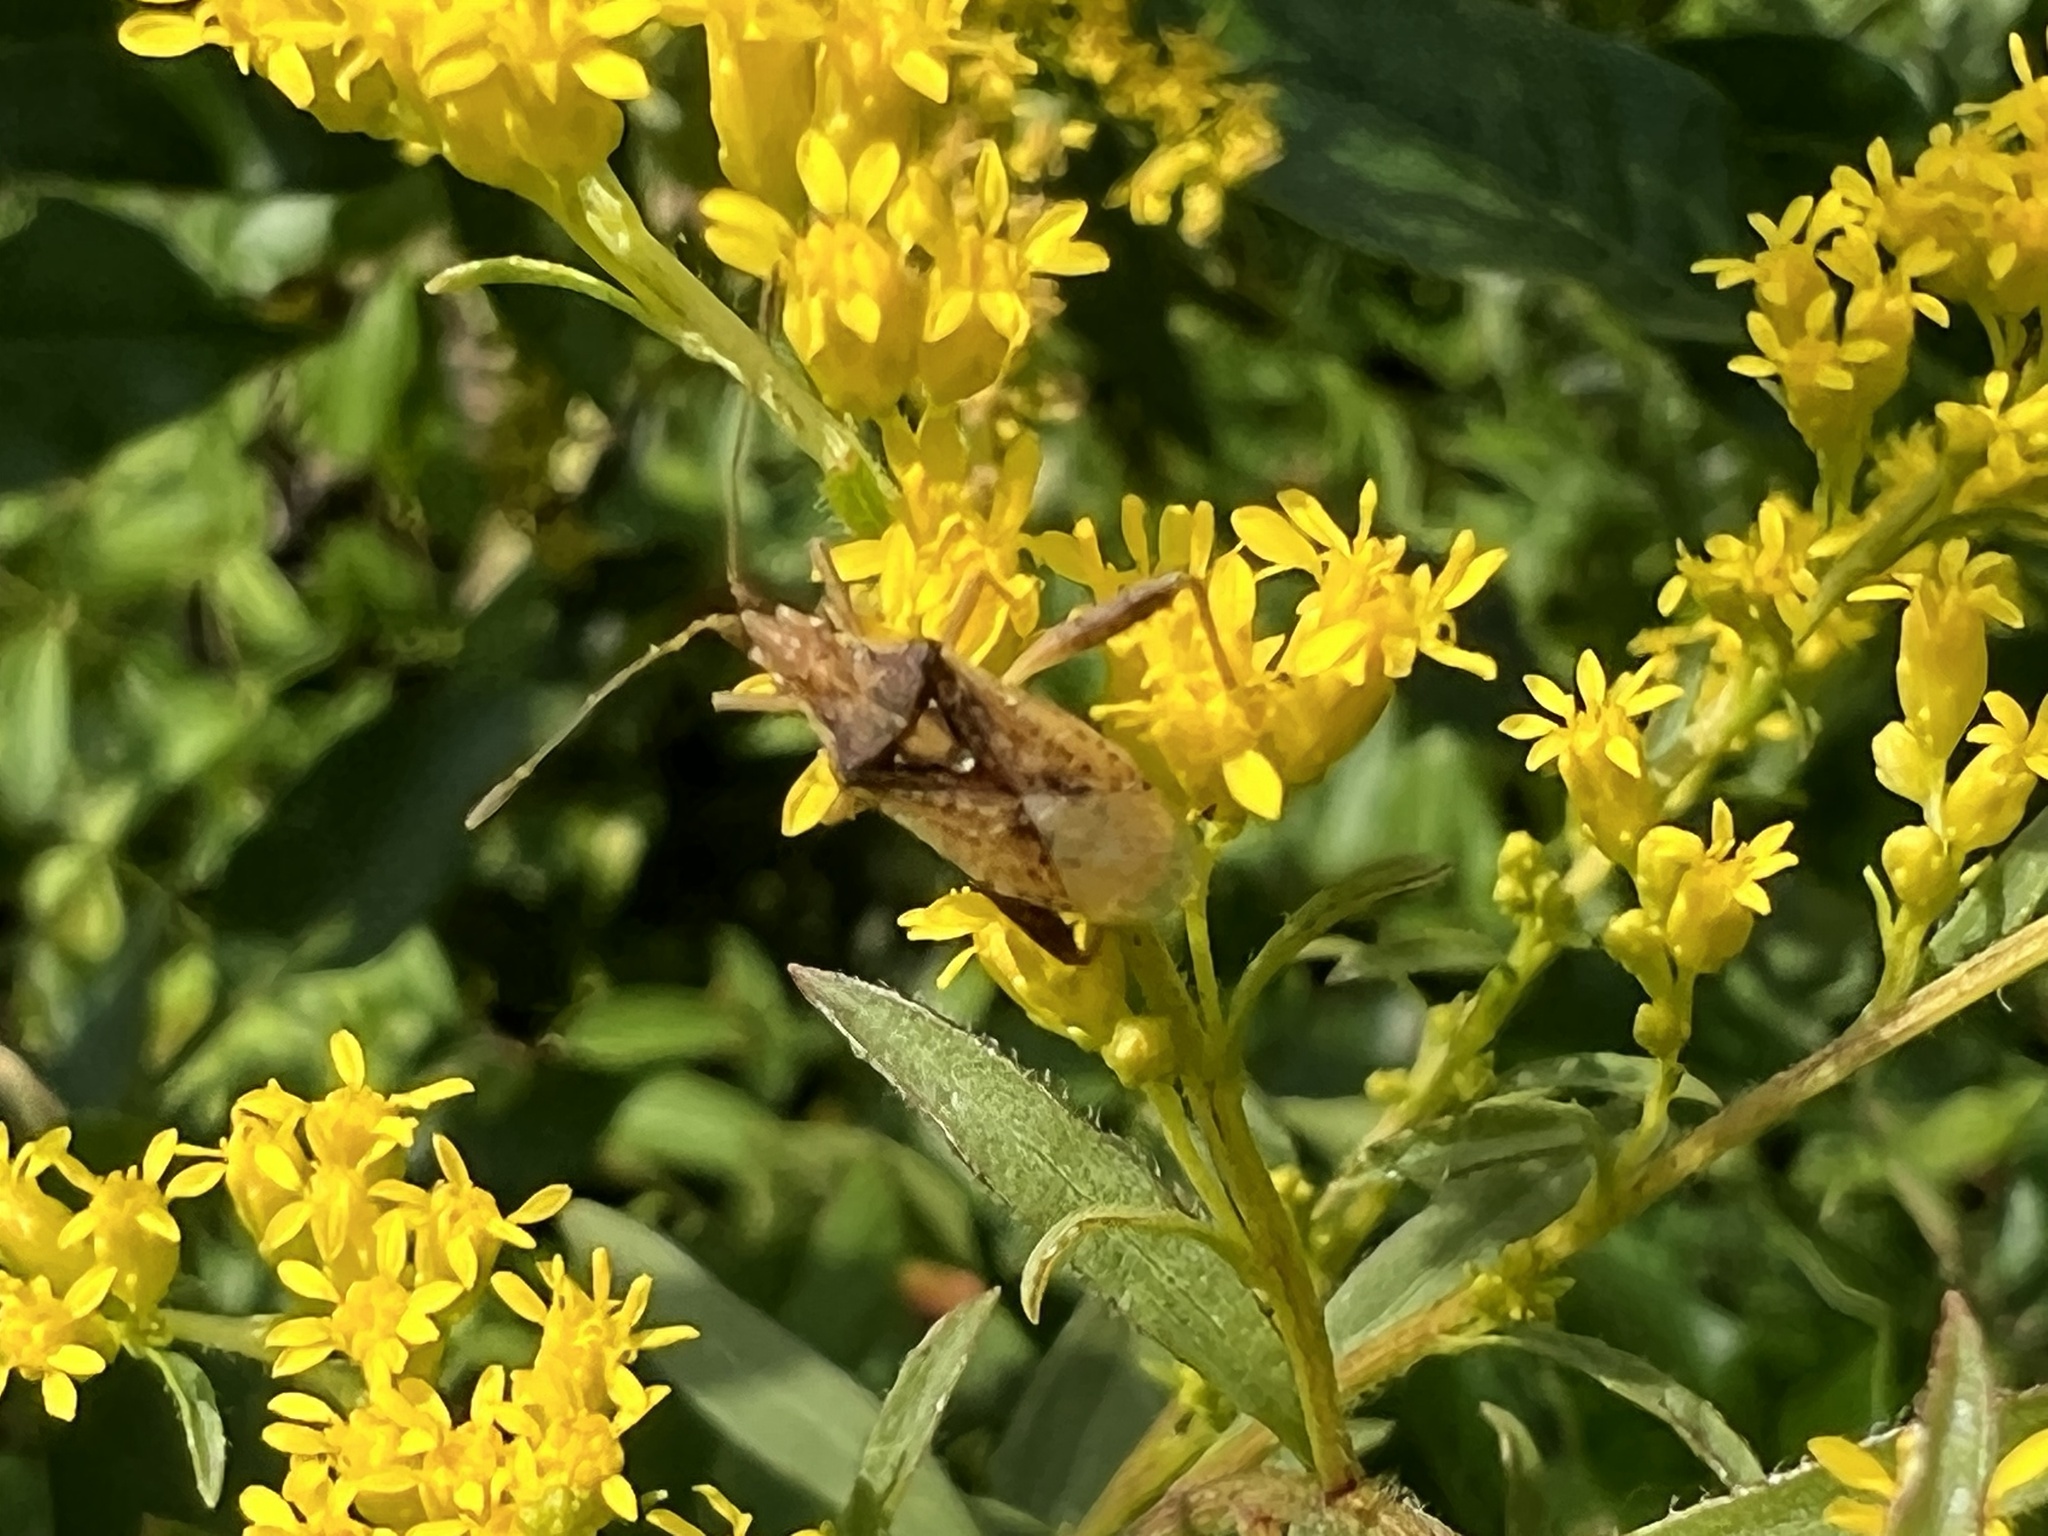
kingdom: Animalia
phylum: Arthropoda
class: Insecta
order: Hemiptera
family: Rhopalidae
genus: Harmostes
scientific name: Harmostes reflexulus
